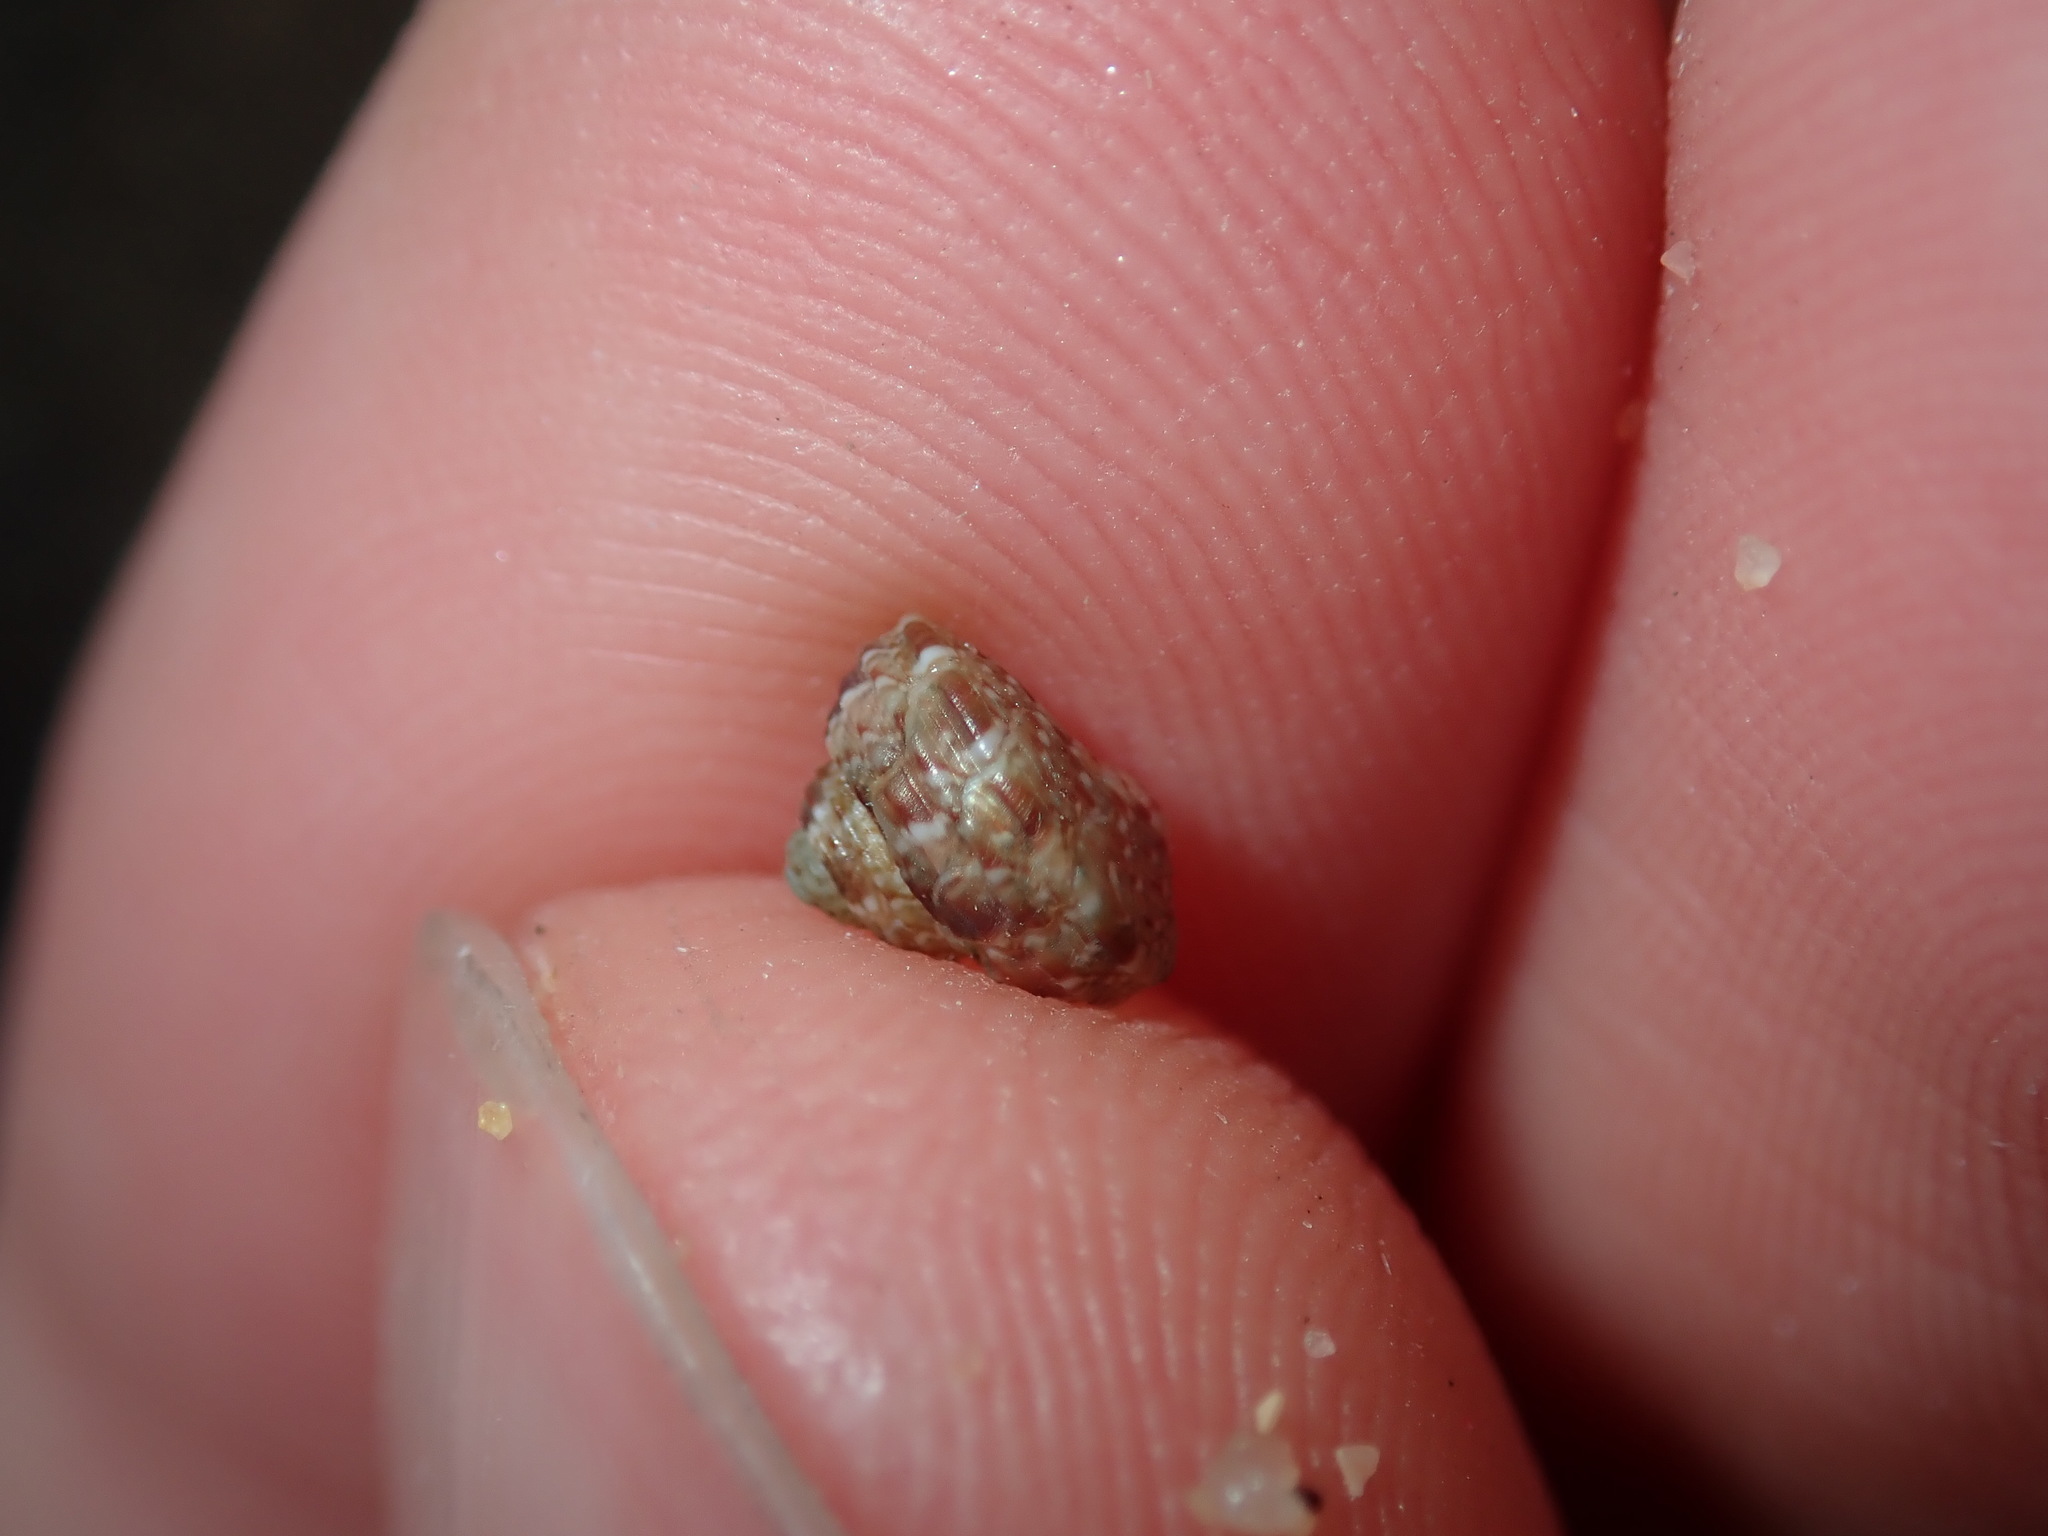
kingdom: Animalia
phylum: Mollusca
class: Gastropoda
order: Trochida
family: Trochidae
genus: Eurytrochus
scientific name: Eurytrochus strangei
